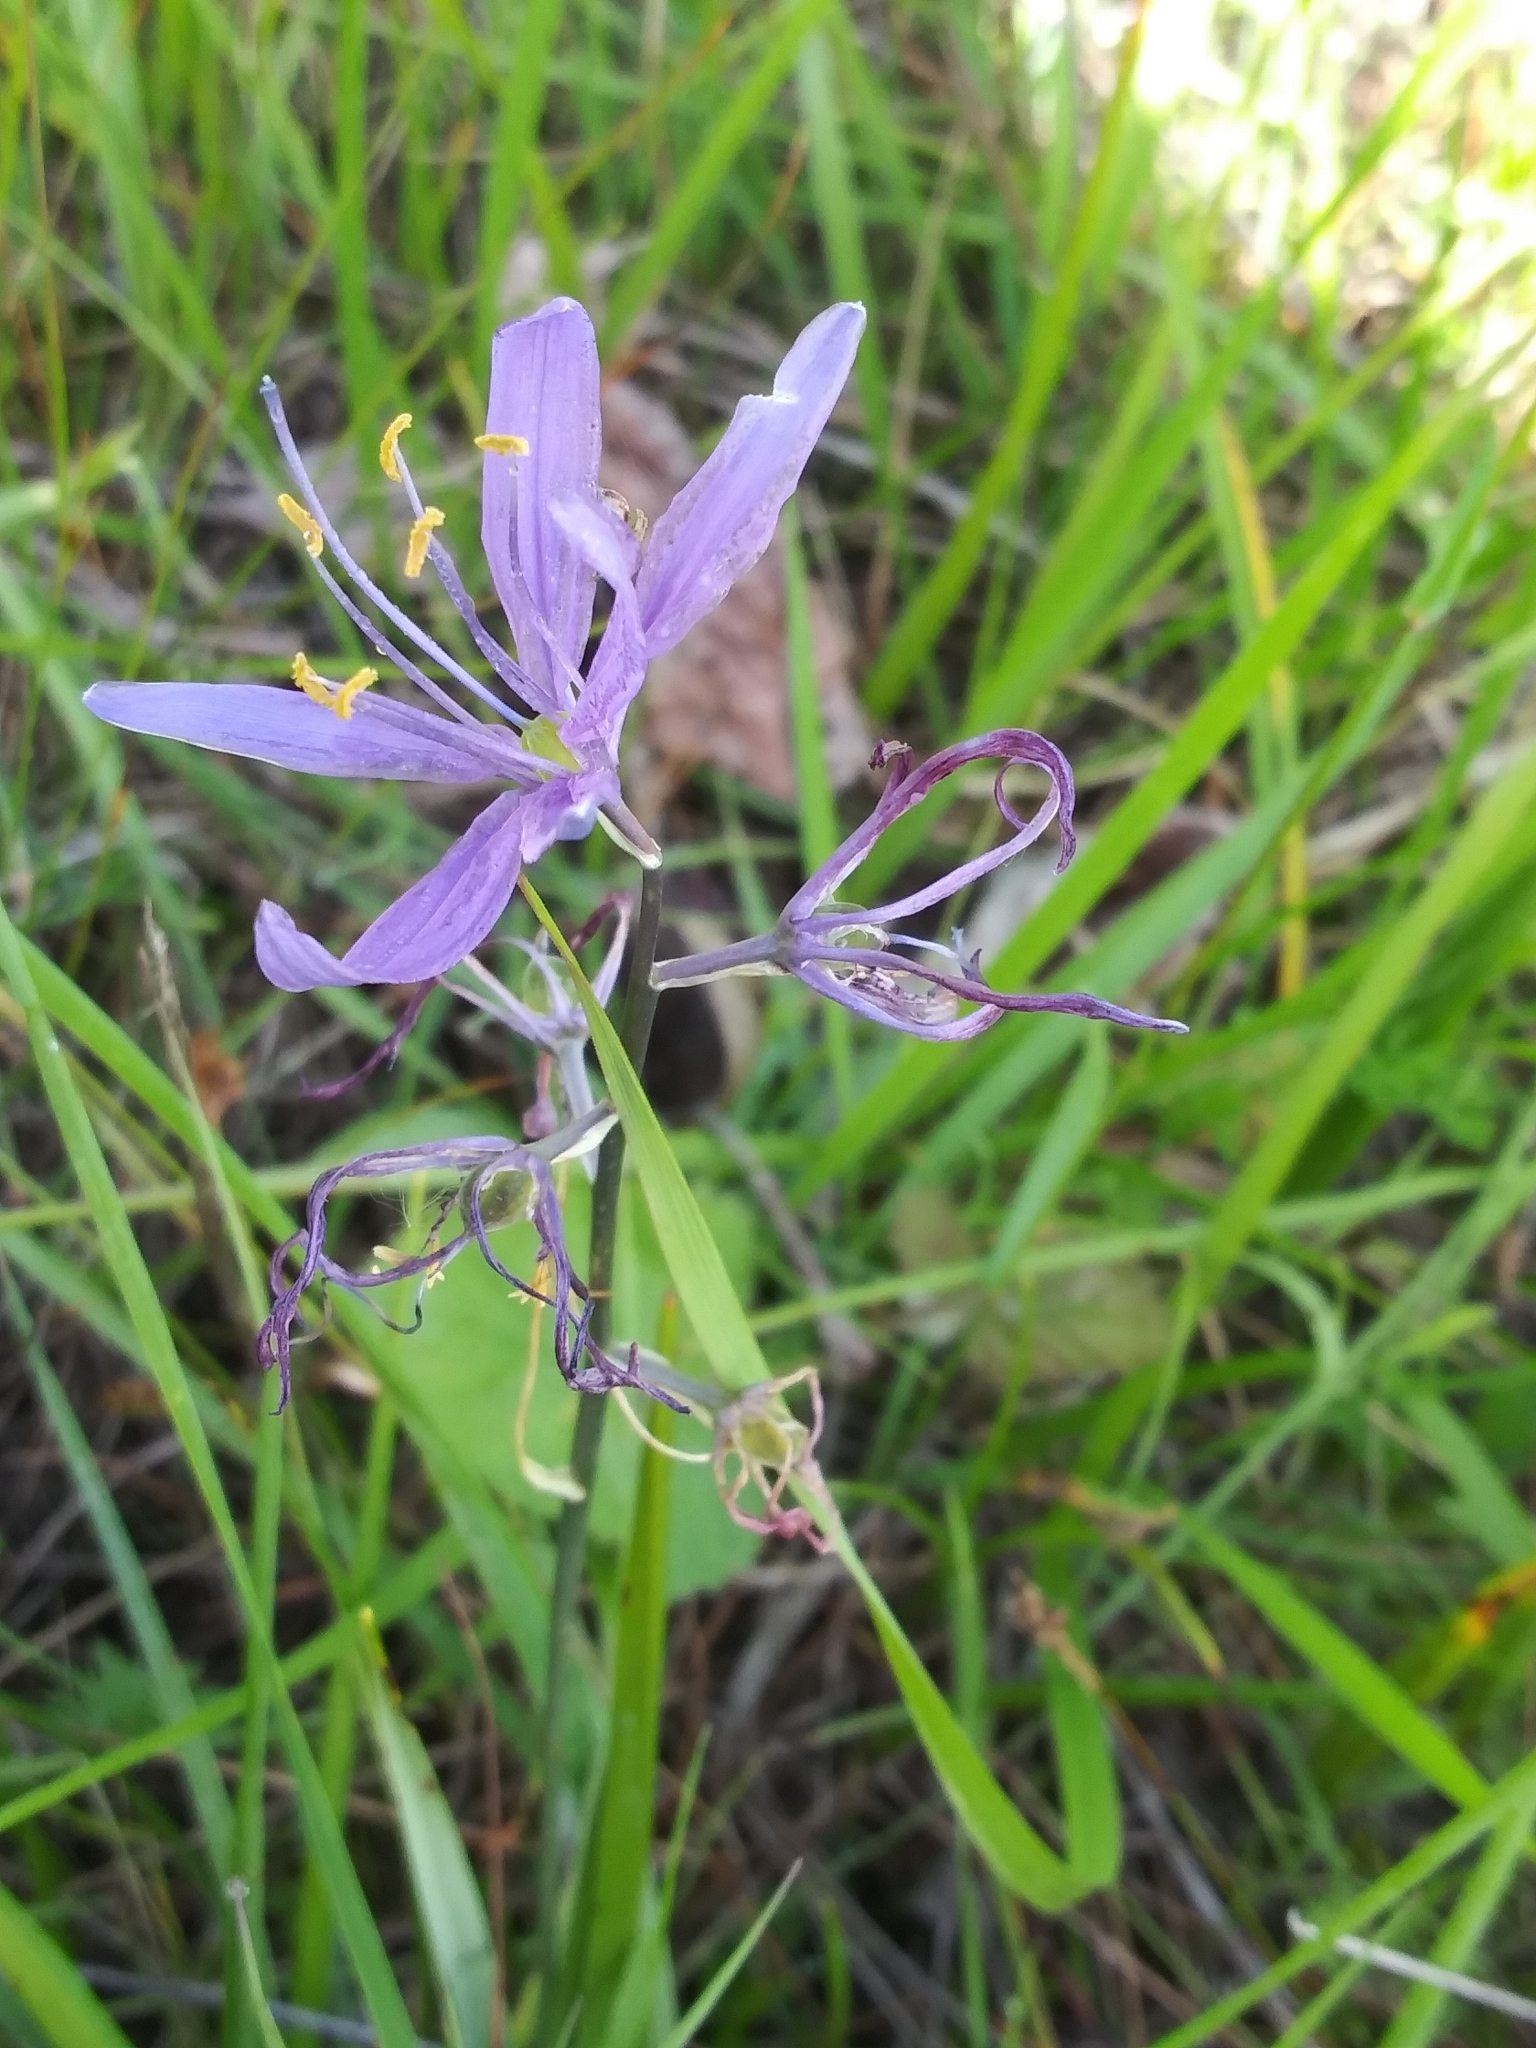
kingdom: Plantae
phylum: Tracheophyta
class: Liliopsida
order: Asparagales
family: Asparagaceae
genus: Camassia
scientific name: Camassia quamash
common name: Common camas
